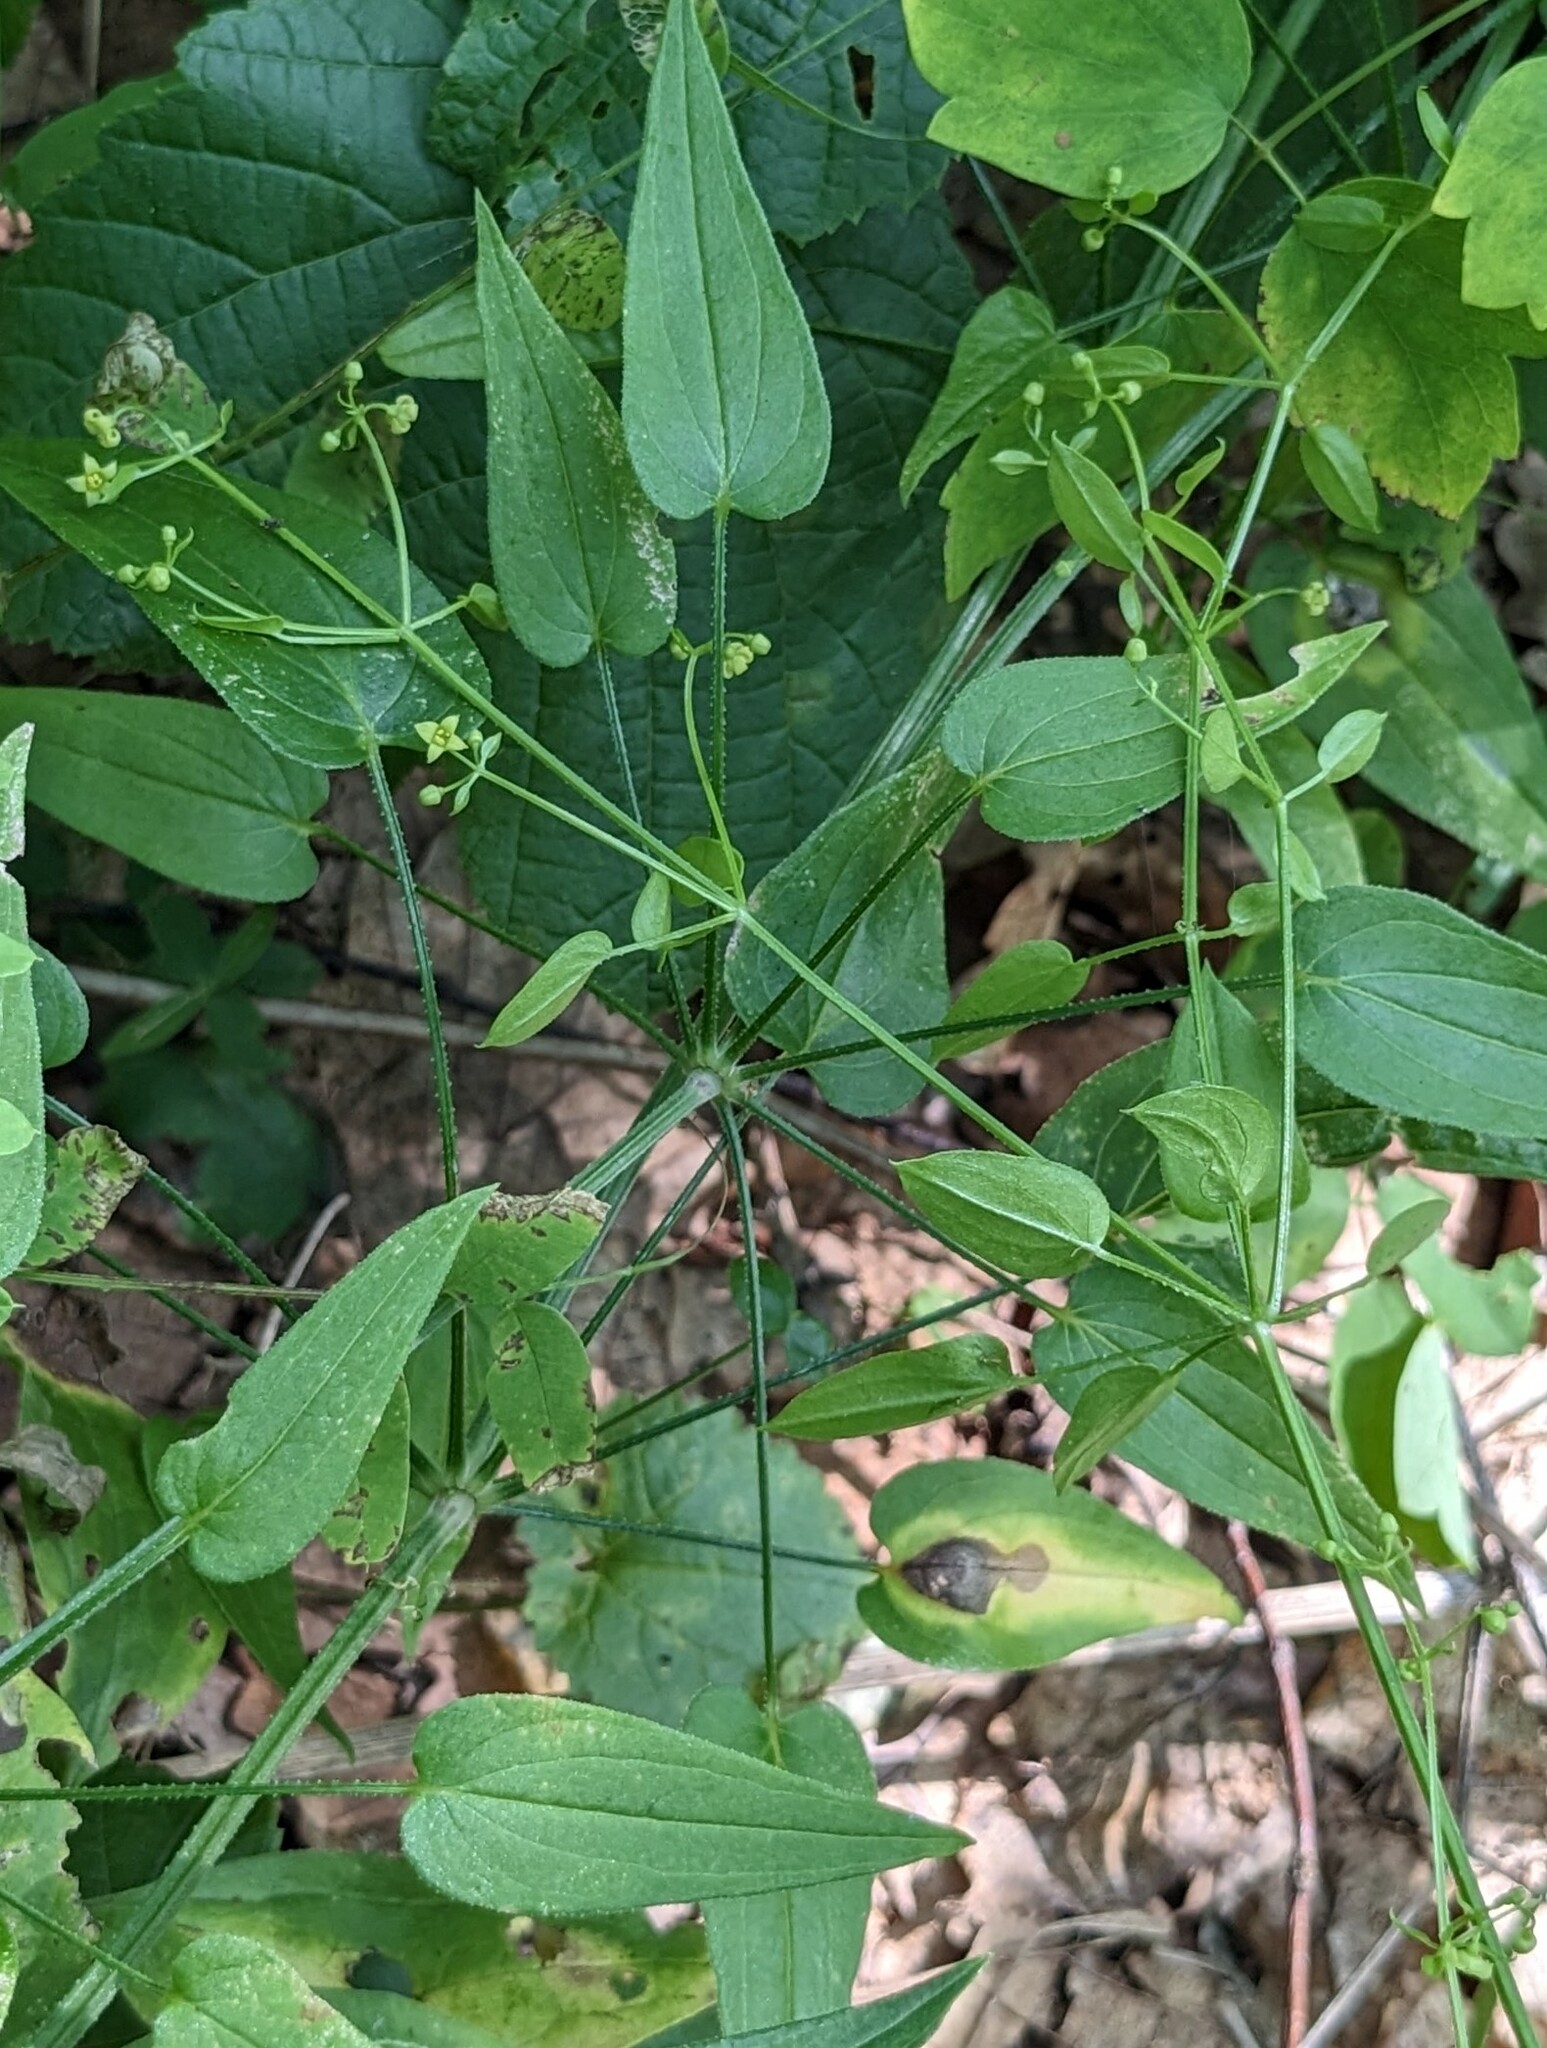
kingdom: Plantae
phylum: Tracheophyta
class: Magnoliopsida
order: Gentianales
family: Rubiaceae
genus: Rubia
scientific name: Rubia cordifolia
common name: Indian madder
